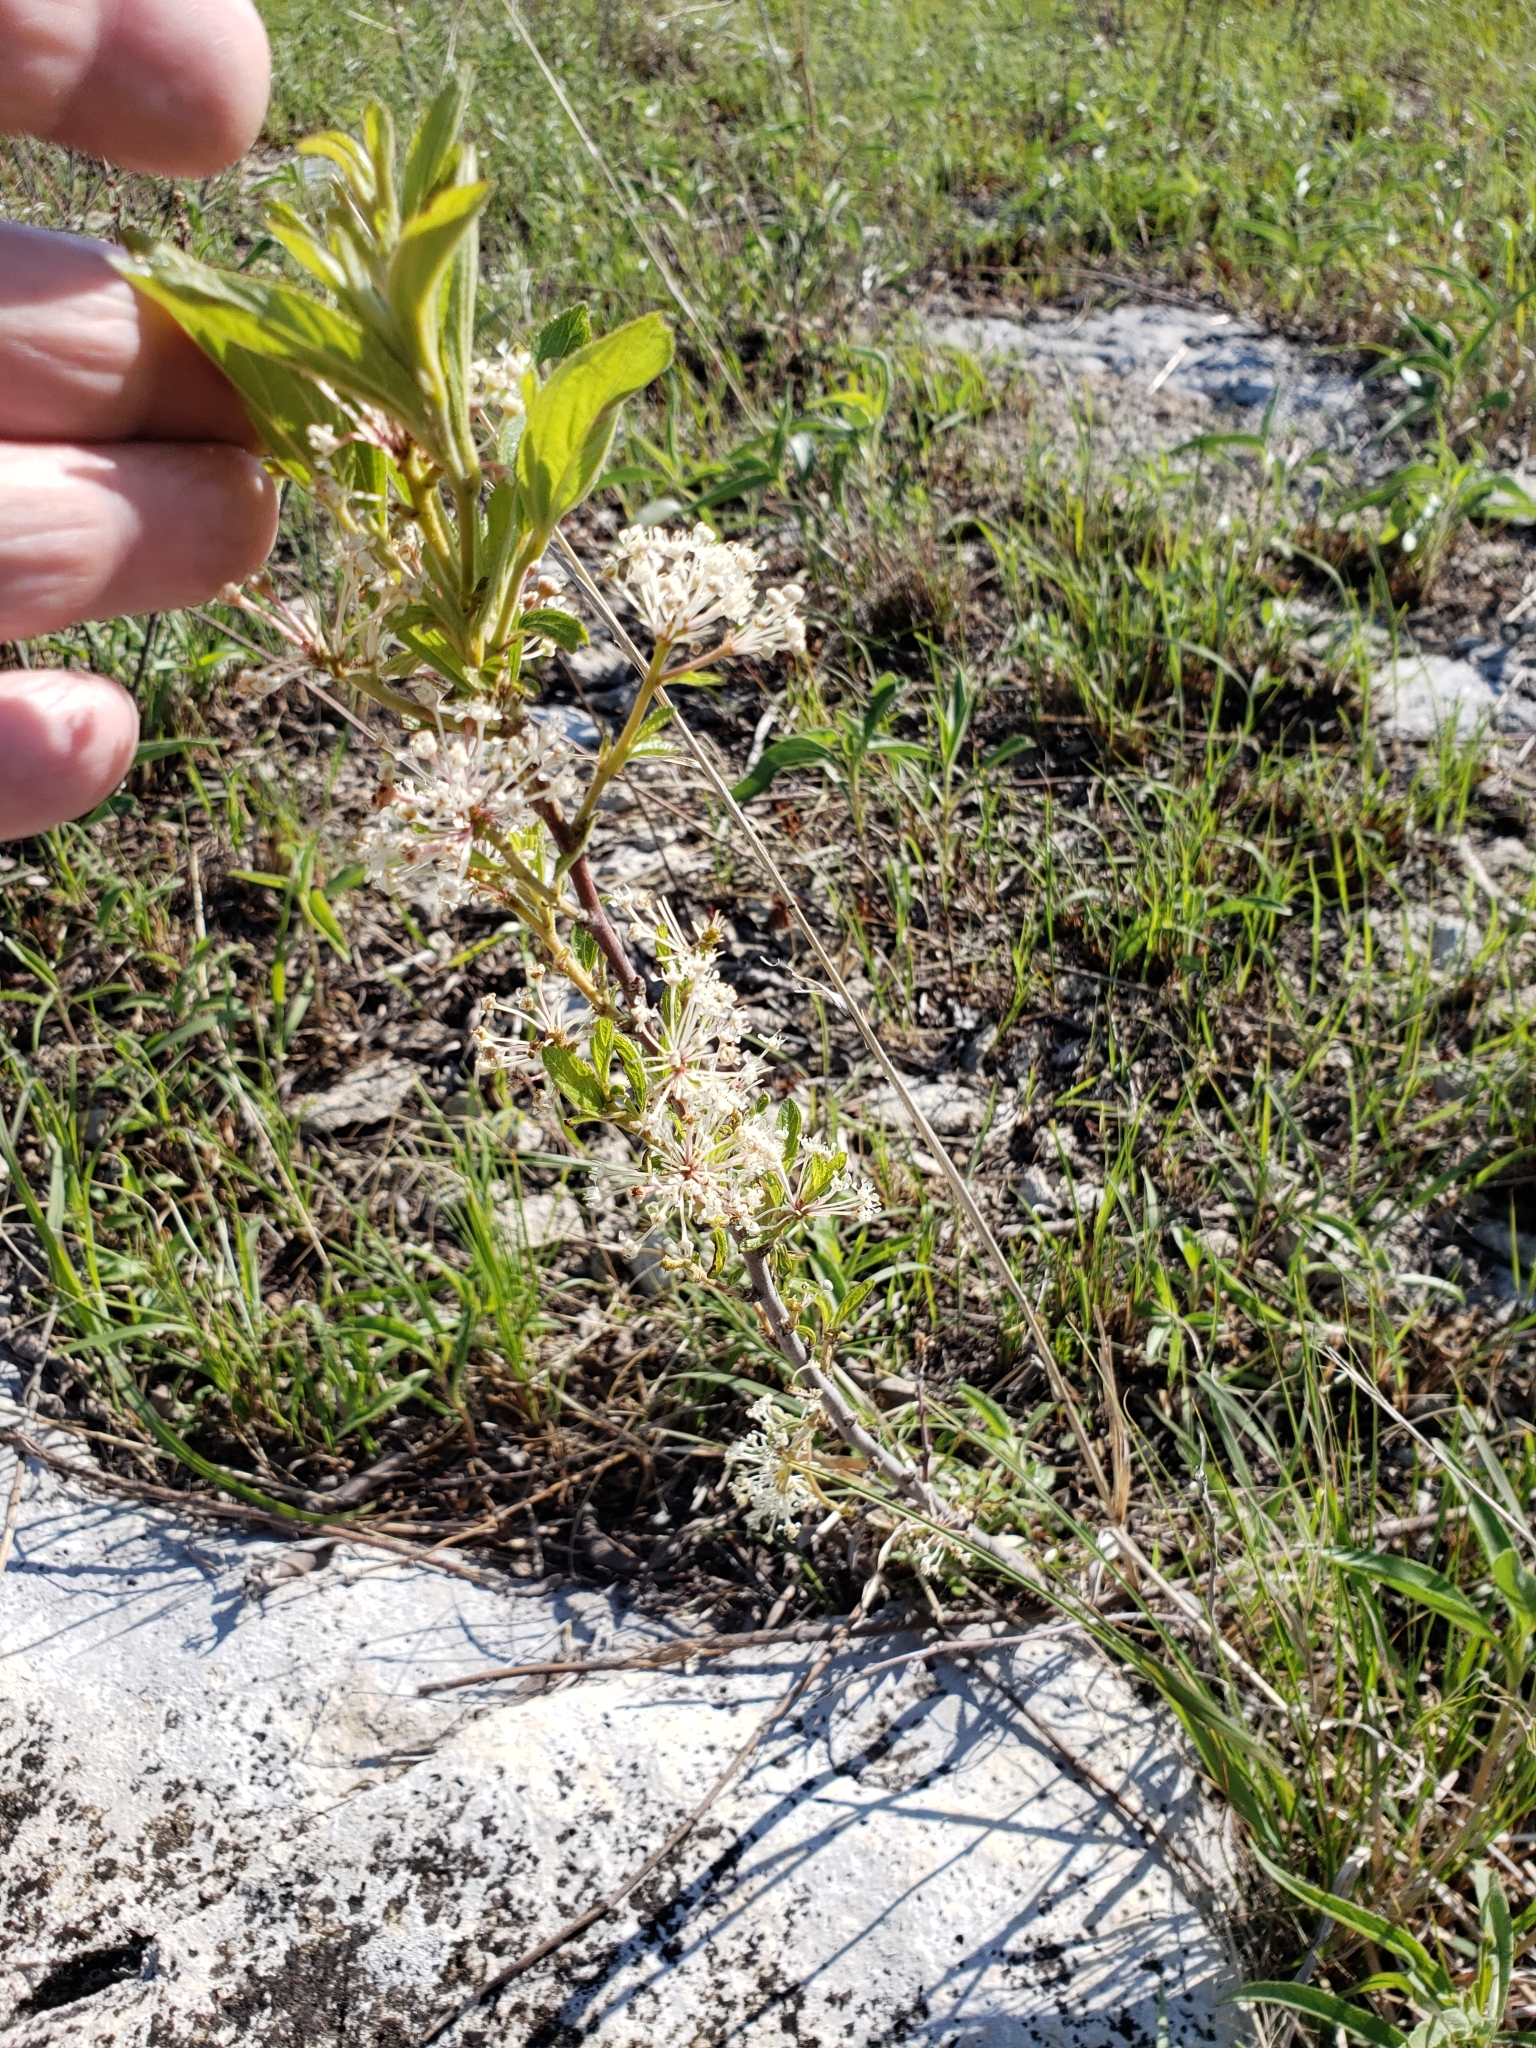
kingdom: Plantae
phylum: Tracheophyta
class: Magnoliopsida
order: Rosales
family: Rhamnaceae
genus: Ceanothus
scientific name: Ceanothus herbaceus
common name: Inland ceanothus
